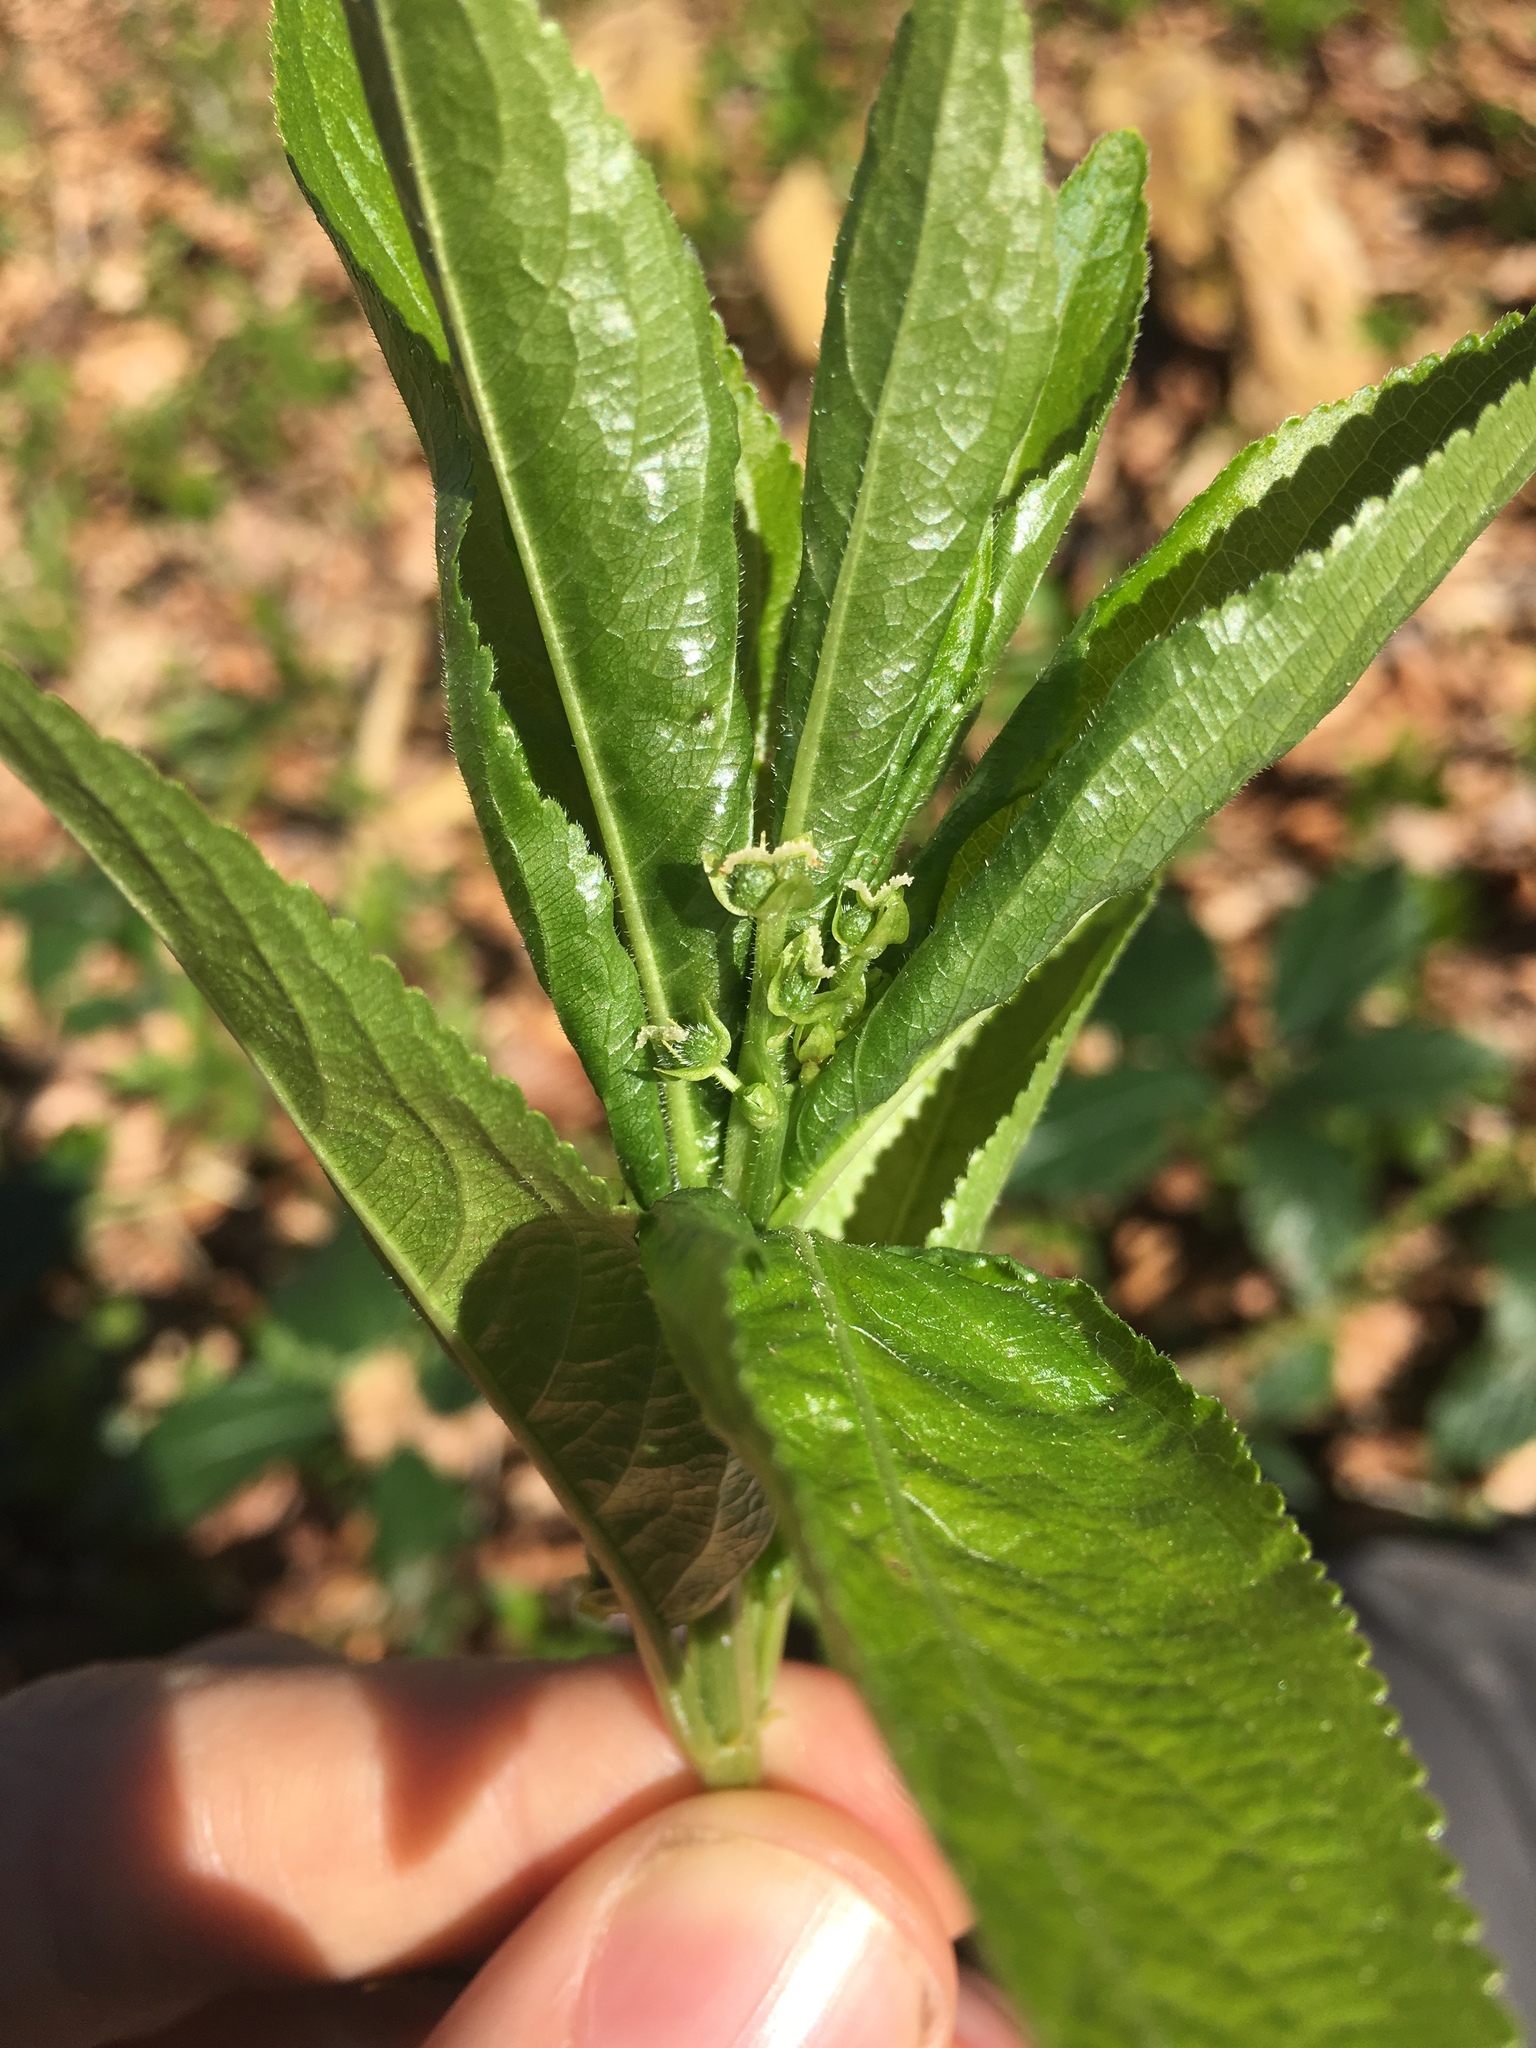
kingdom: Plantae
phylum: Tracheophyta
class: Magnoliopsida
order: Malpighiales
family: Euphorbiaceae
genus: Mercurialis
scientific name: Mercurialis perennis
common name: Dog mercury
